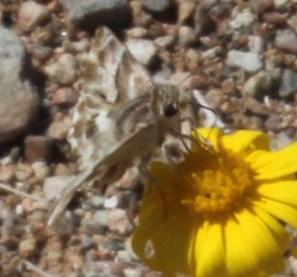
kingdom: Animalia
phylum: Arthropoda
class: Insecta
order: Lepidoptera
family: Hesperiidae
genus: Gomalia
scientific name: Gomalia elma
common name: Green-marbled skipper
